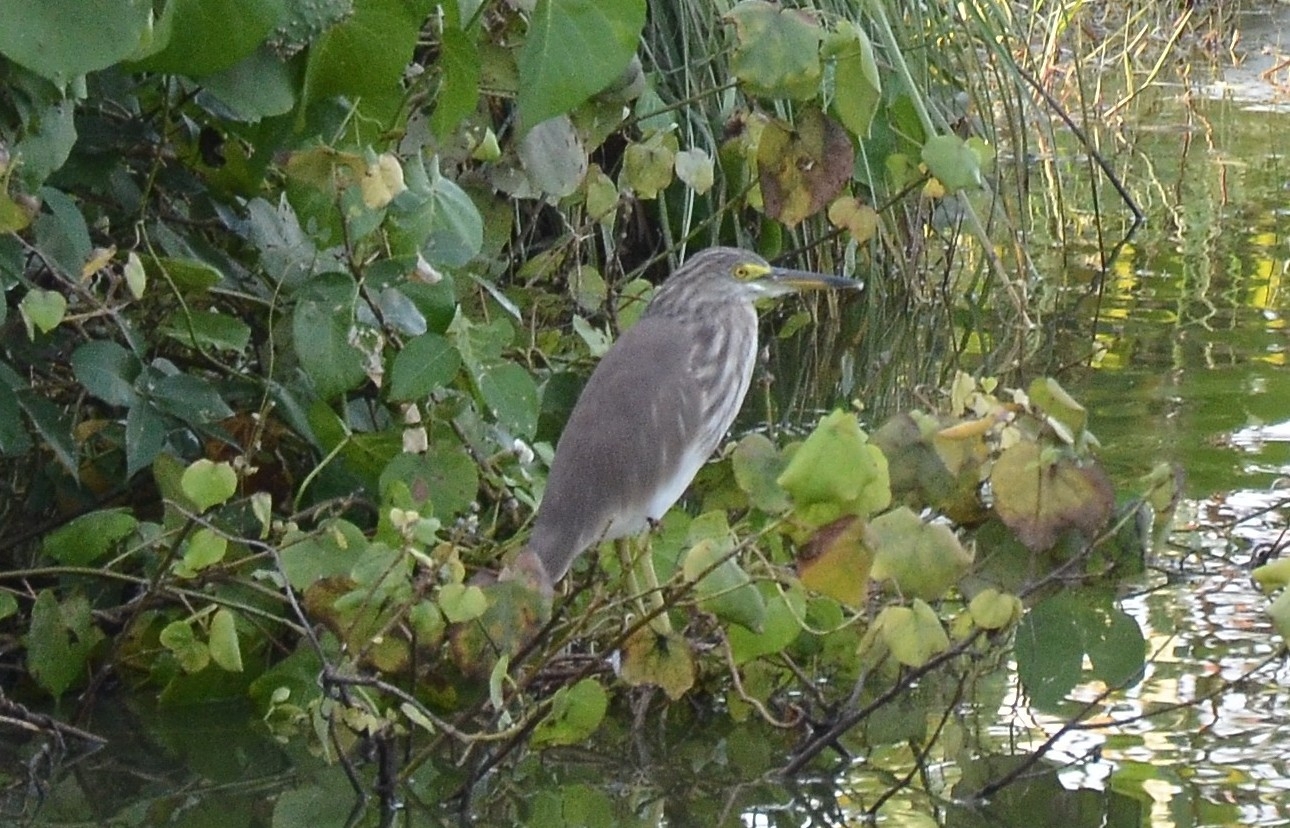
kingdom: Animalia
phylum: Chordata
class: Aves
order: Pelecaniformes
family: Ardeidae
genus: Ardeola
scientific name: Ardeola grayii
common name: Indian pond heron
